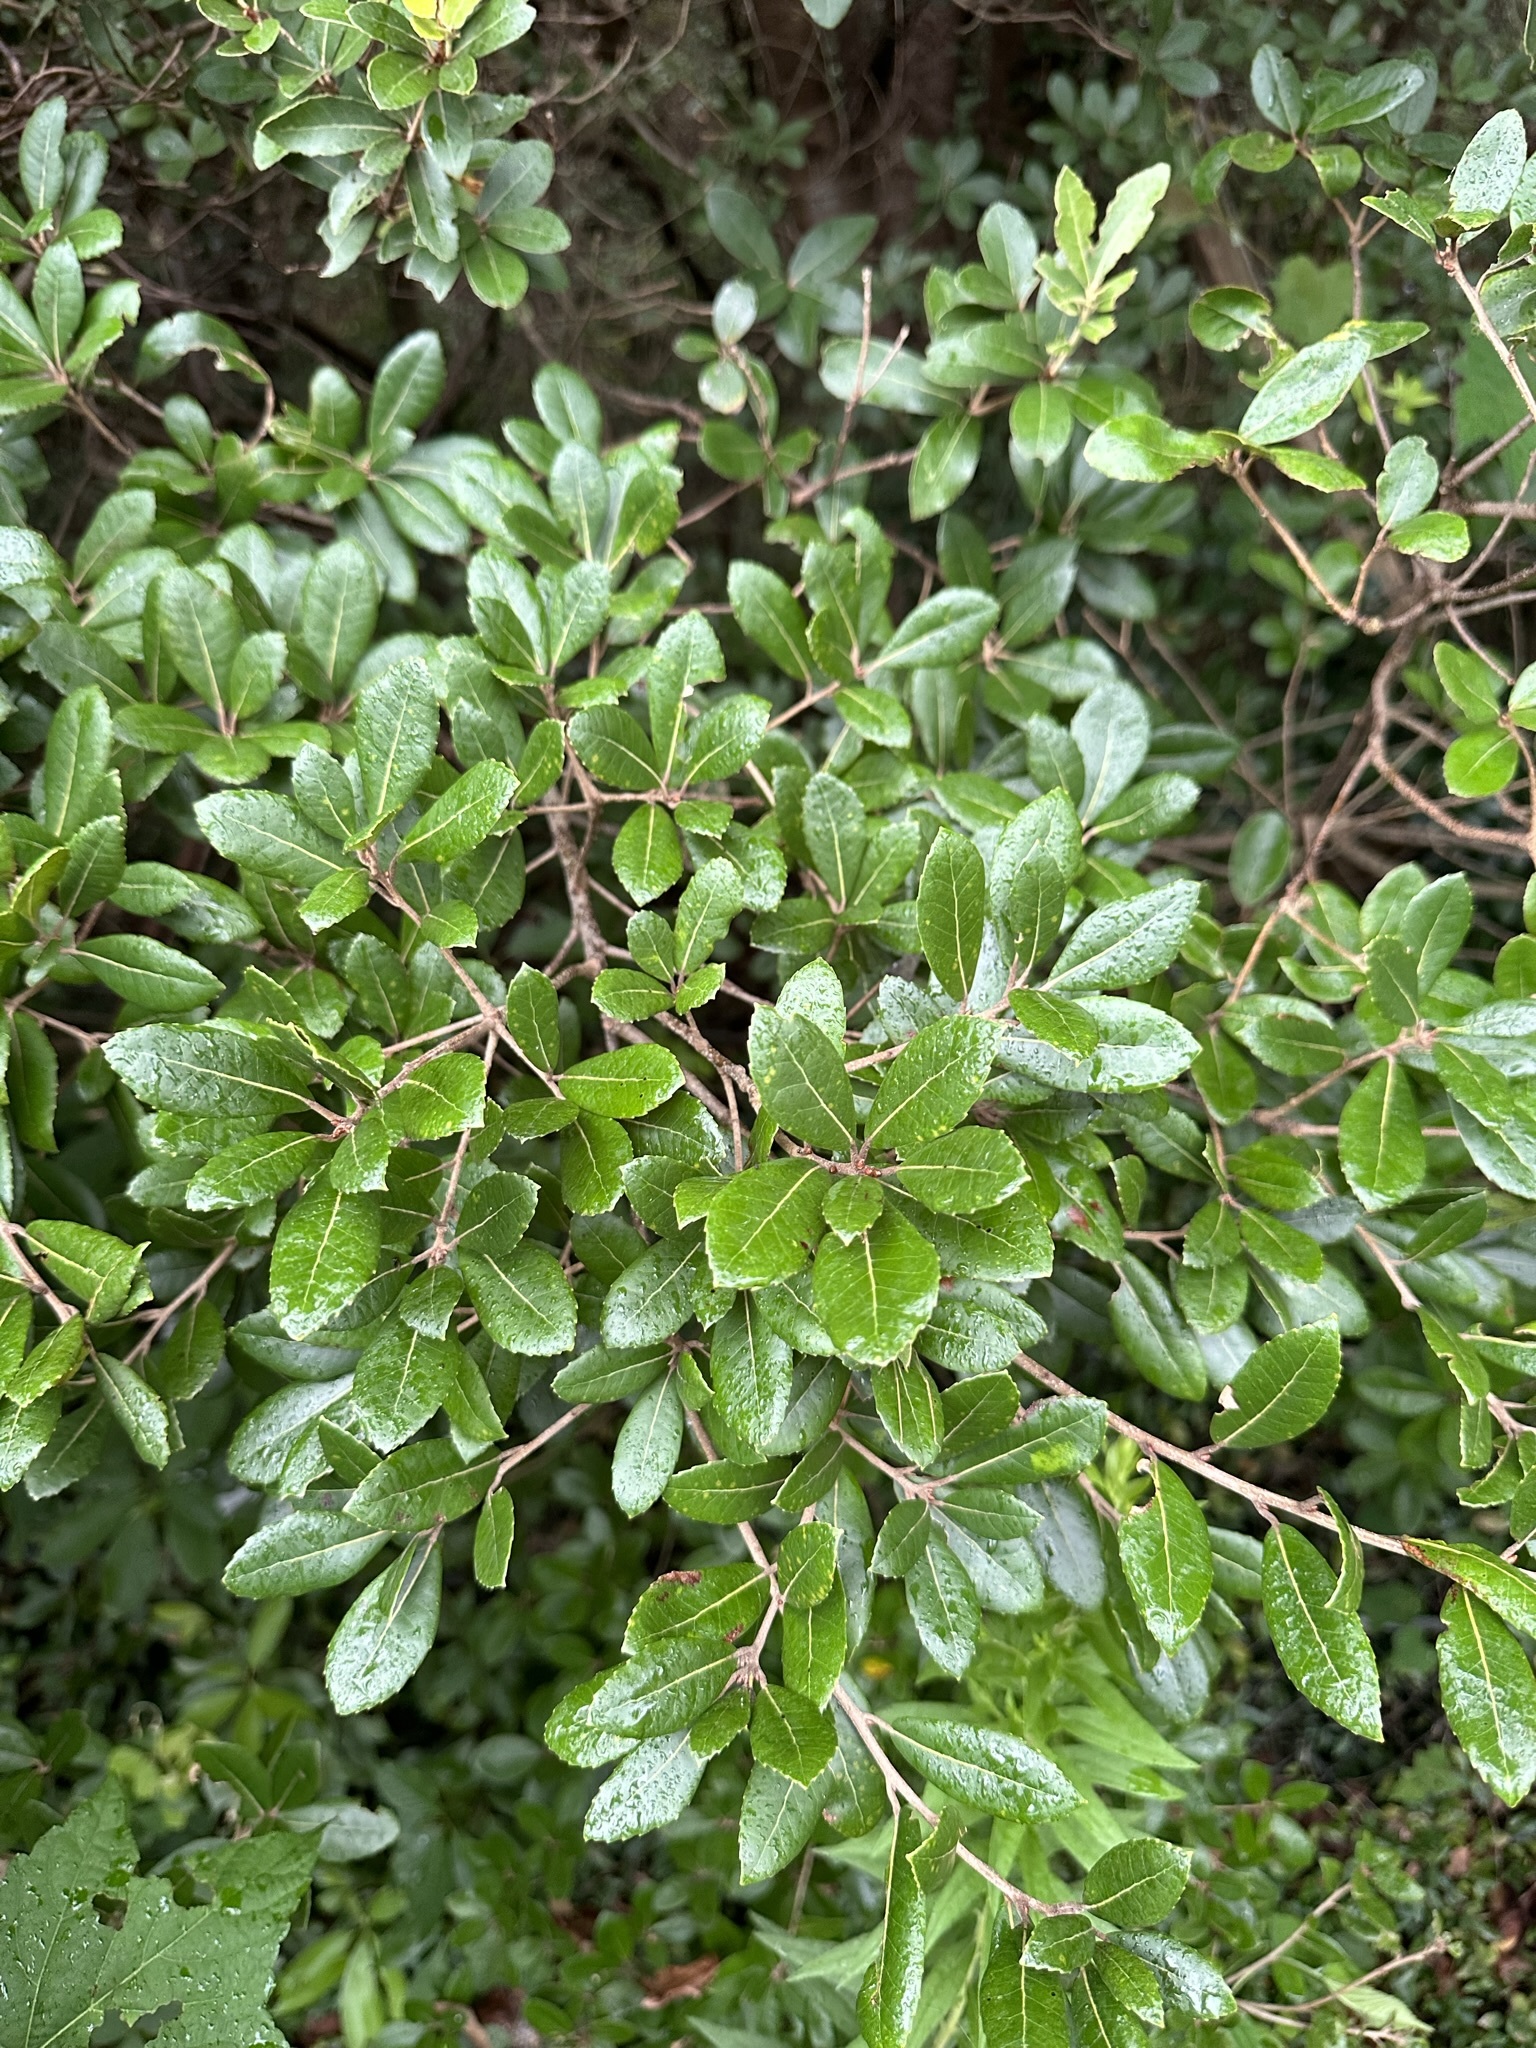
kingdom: Plantae
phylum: Tracheophyta
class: Magnoliopsida
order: Fagales
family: Fagaceae
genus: Quercus
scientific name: Quercus phillyreoides
